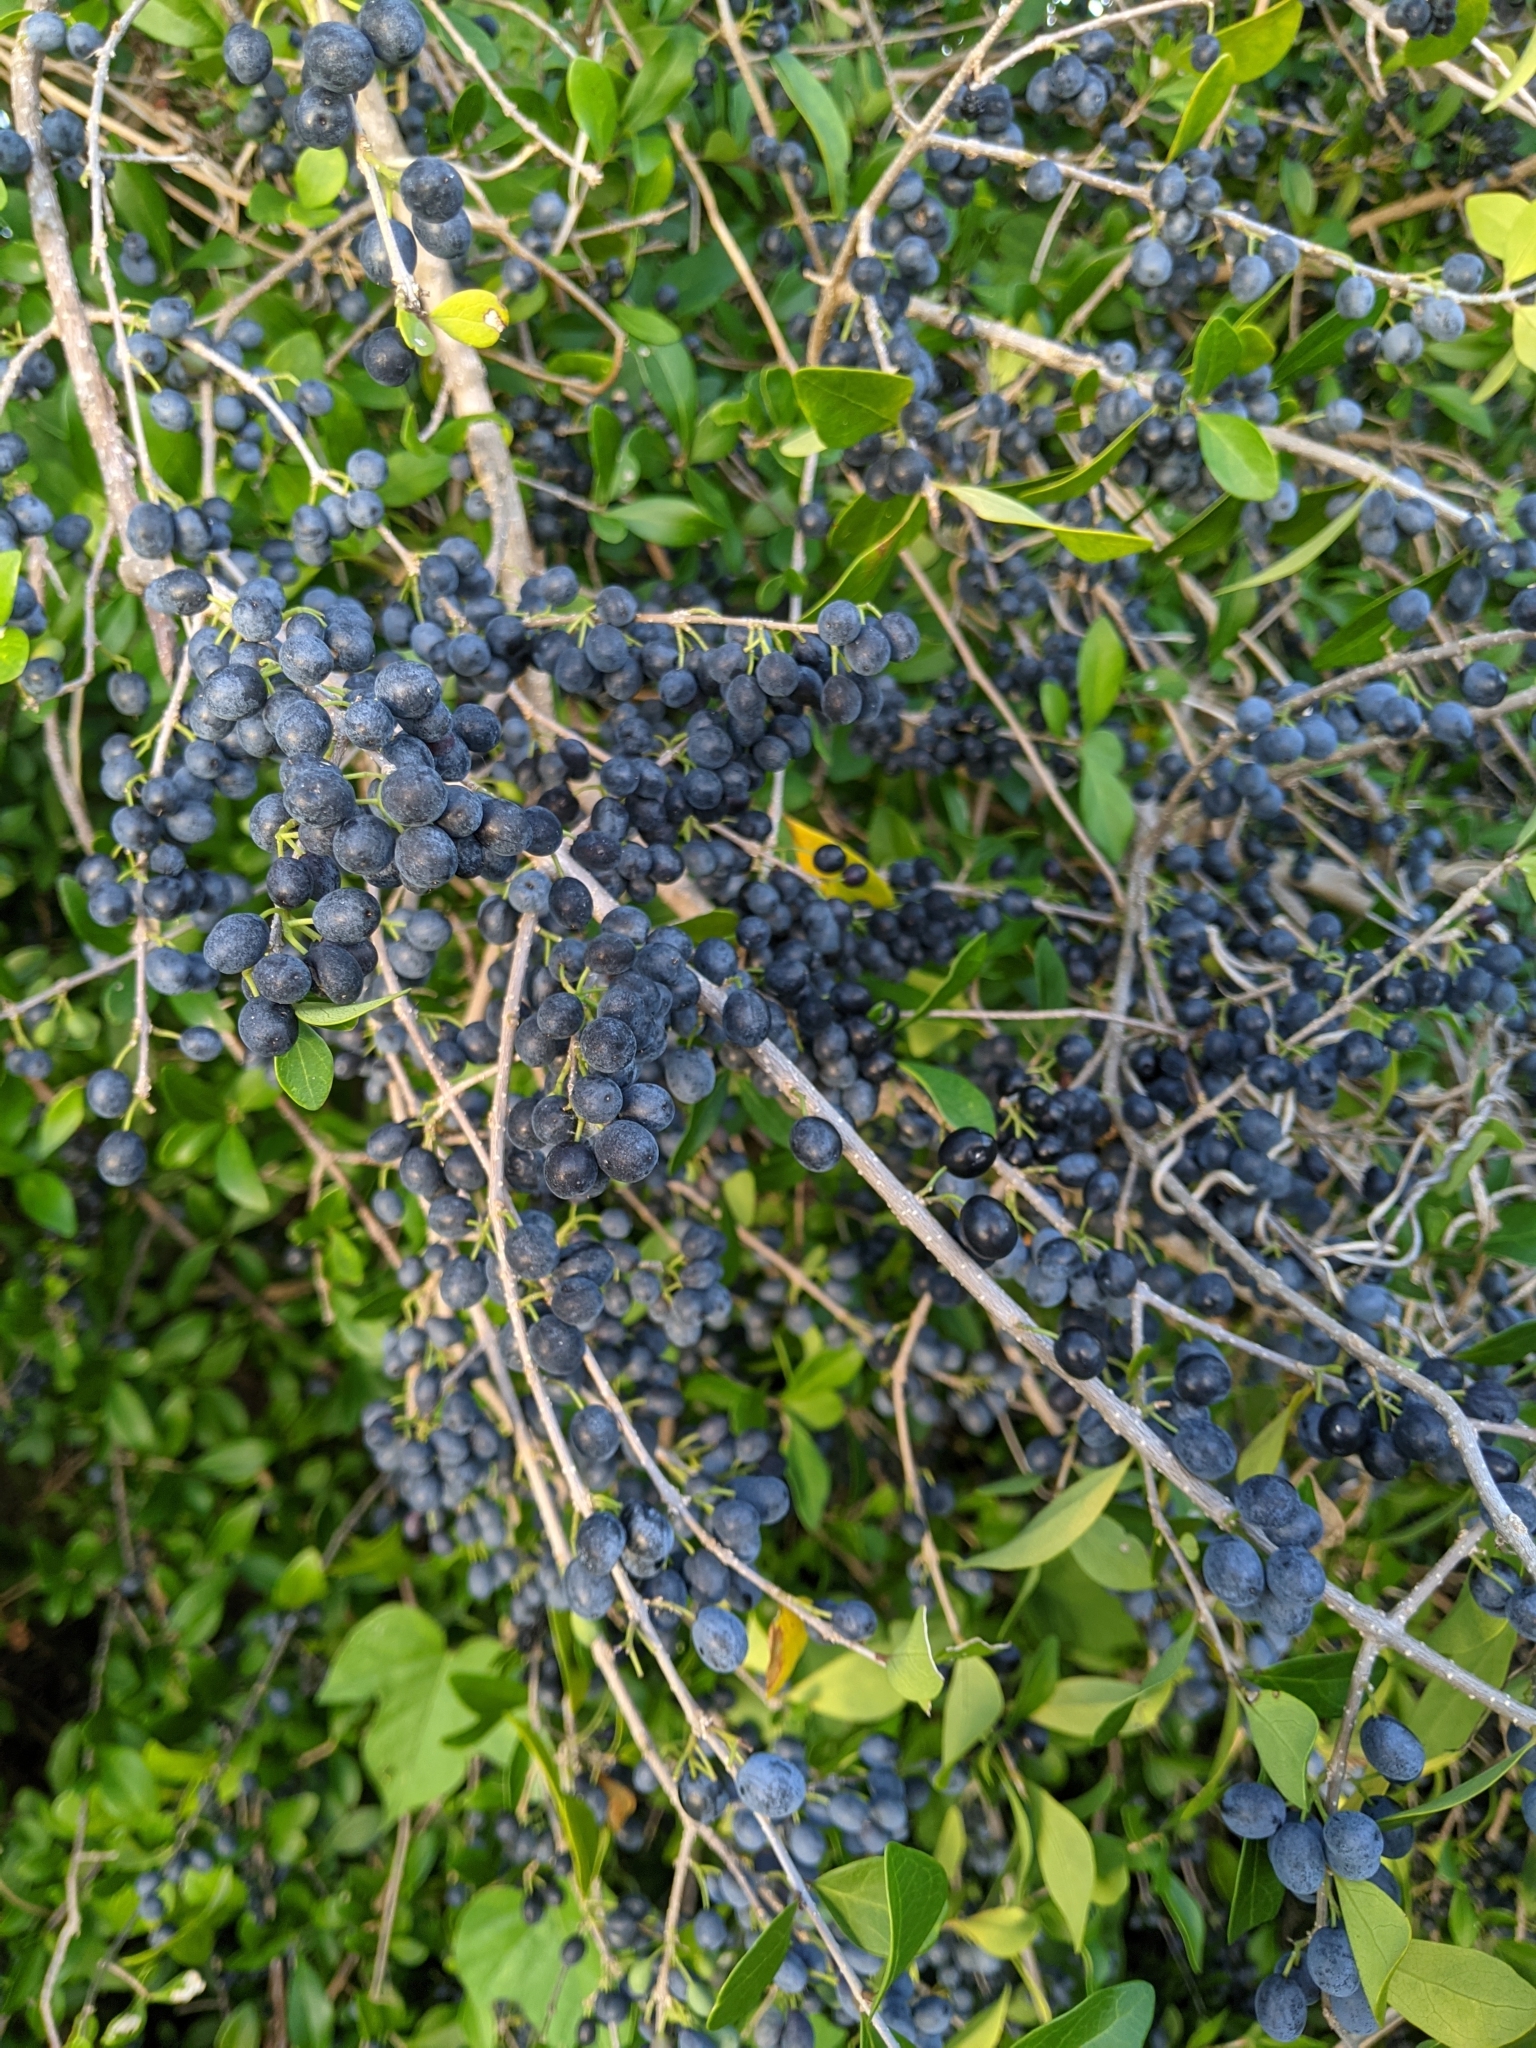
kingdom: Plantae
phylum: Tracheophyta
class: Magnoliopsida
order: Lamiales
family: Oleaceae
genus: Forestiera
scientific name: Forestiera segregata
